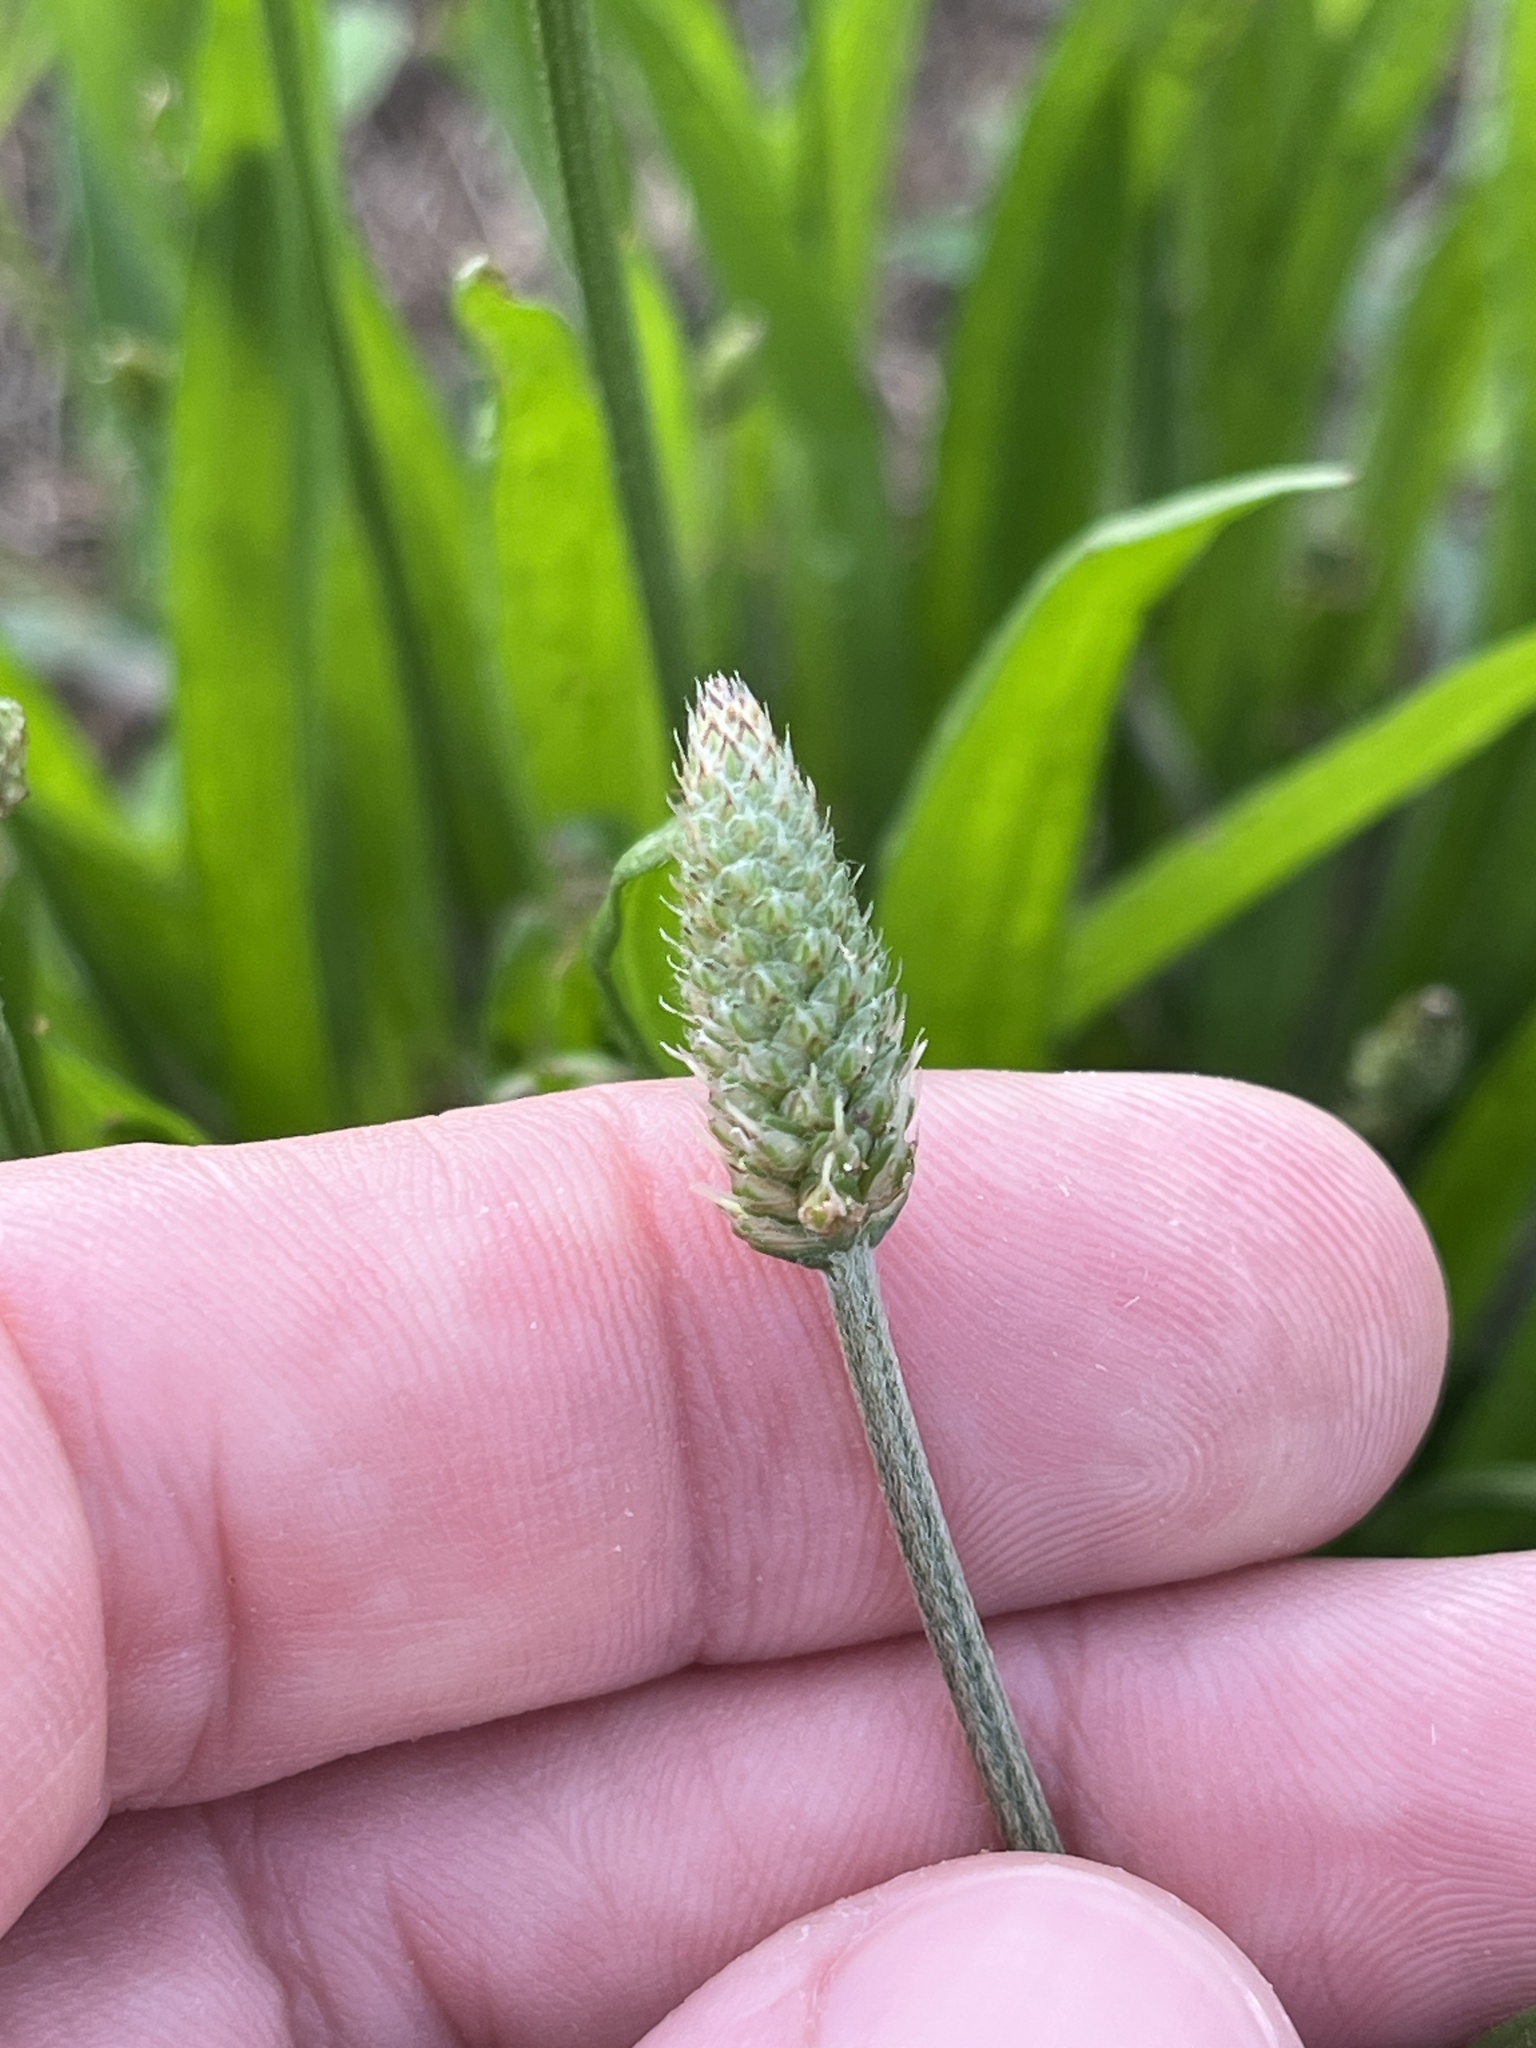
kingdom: Plantae
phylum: Tracheophyta
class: Magnoliopsida
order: Lamiales
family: Plantaginaceae
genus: Plantago
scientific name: Plantago lanceolata
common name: Ribwort plantain
